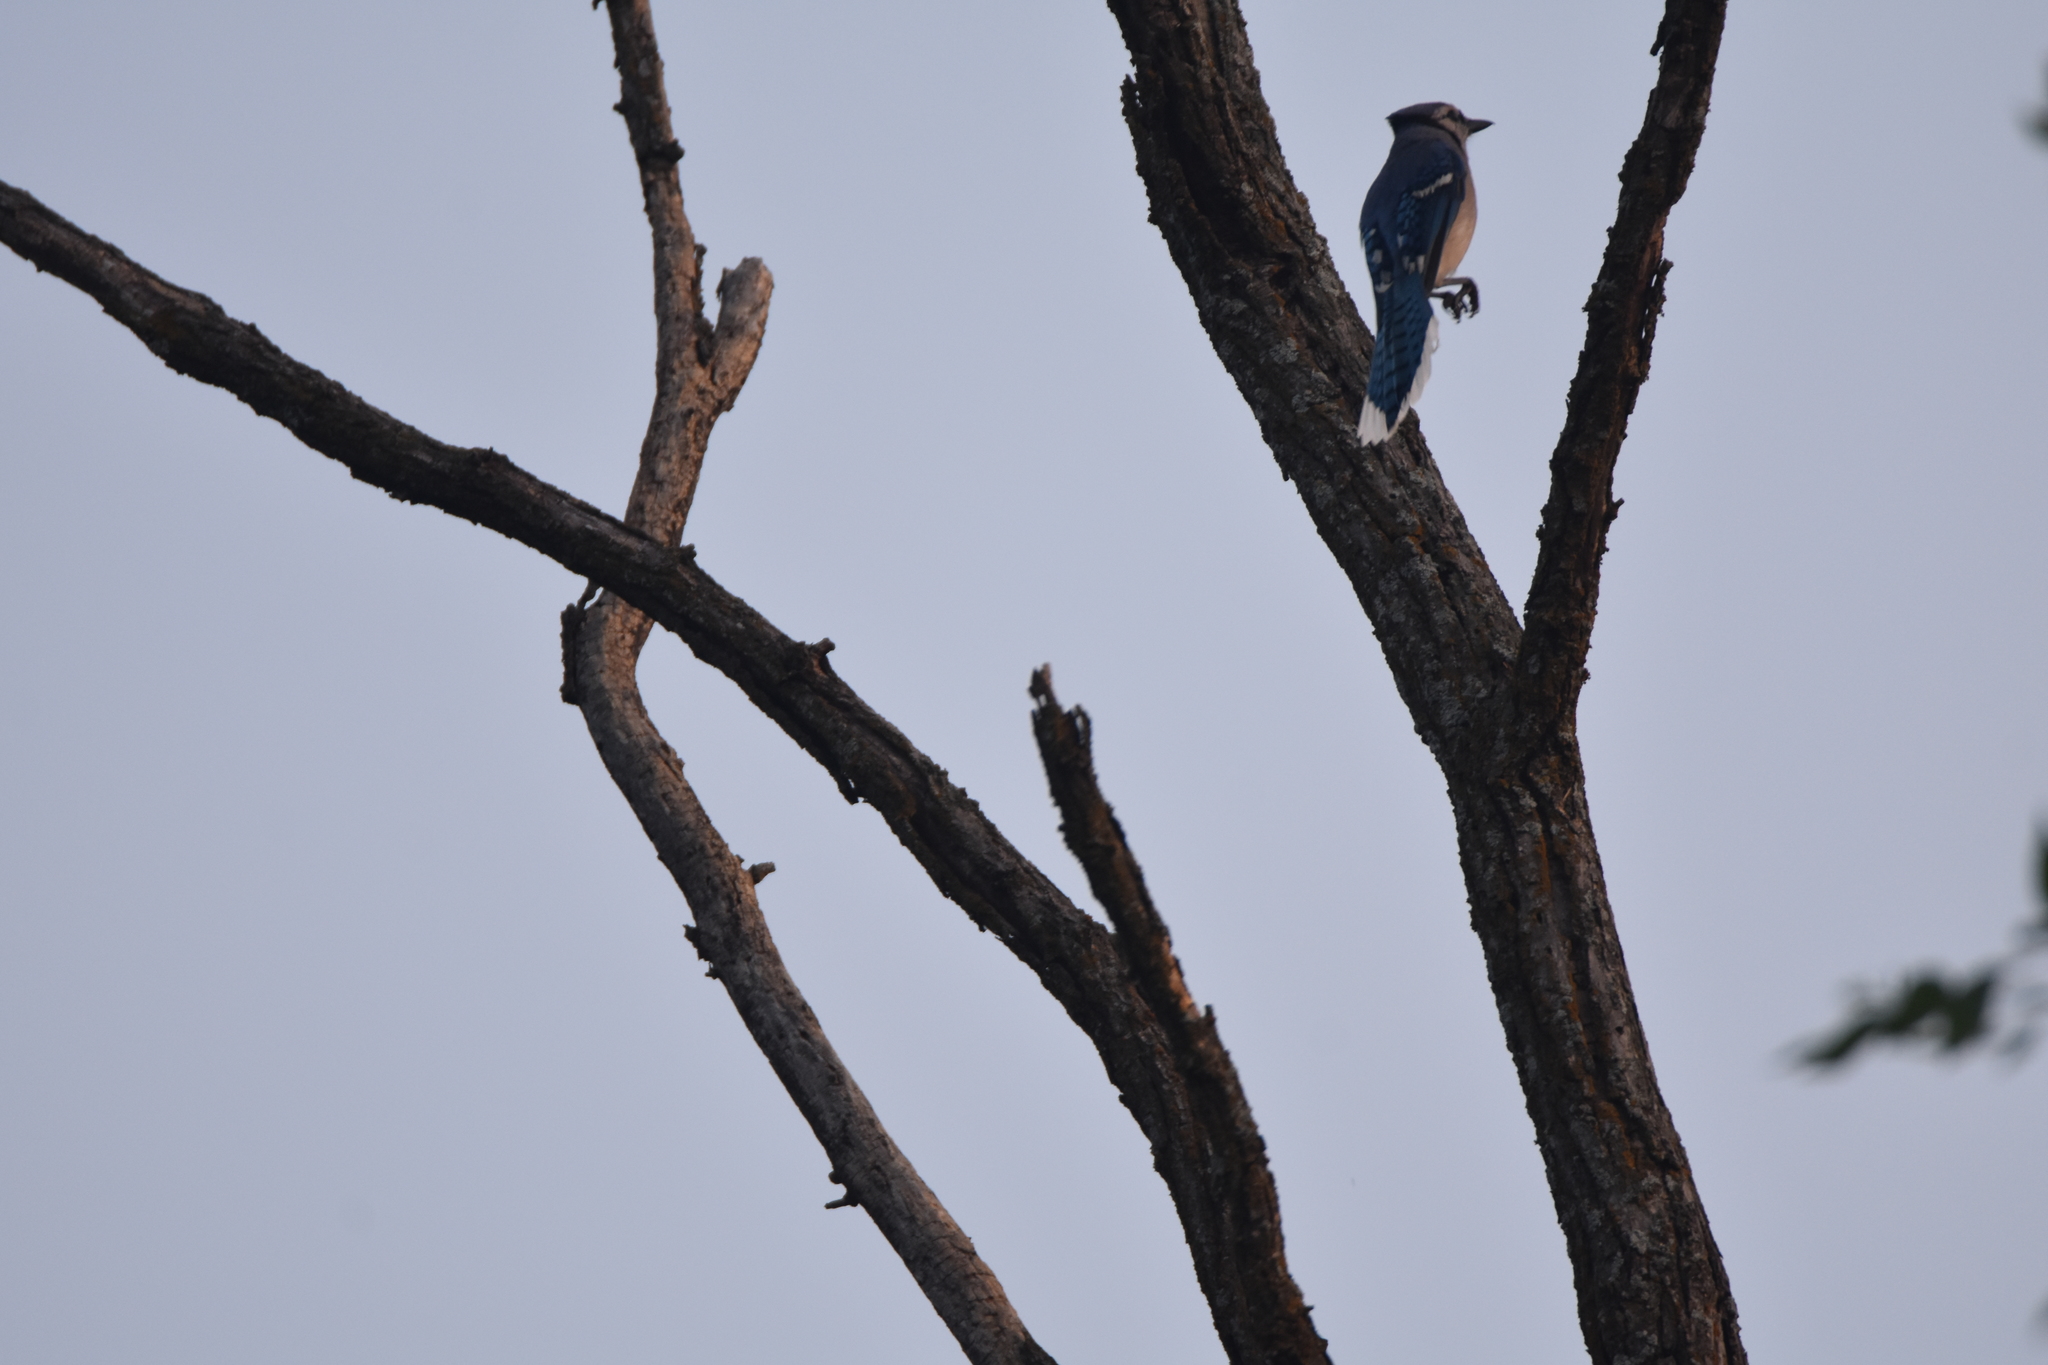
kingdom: Animalia
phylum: Chordata
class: Aves
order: Passeriformes
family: Corvidae
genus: Cyanocitta
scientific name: Cyanocitta cristata
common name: Blue jay
